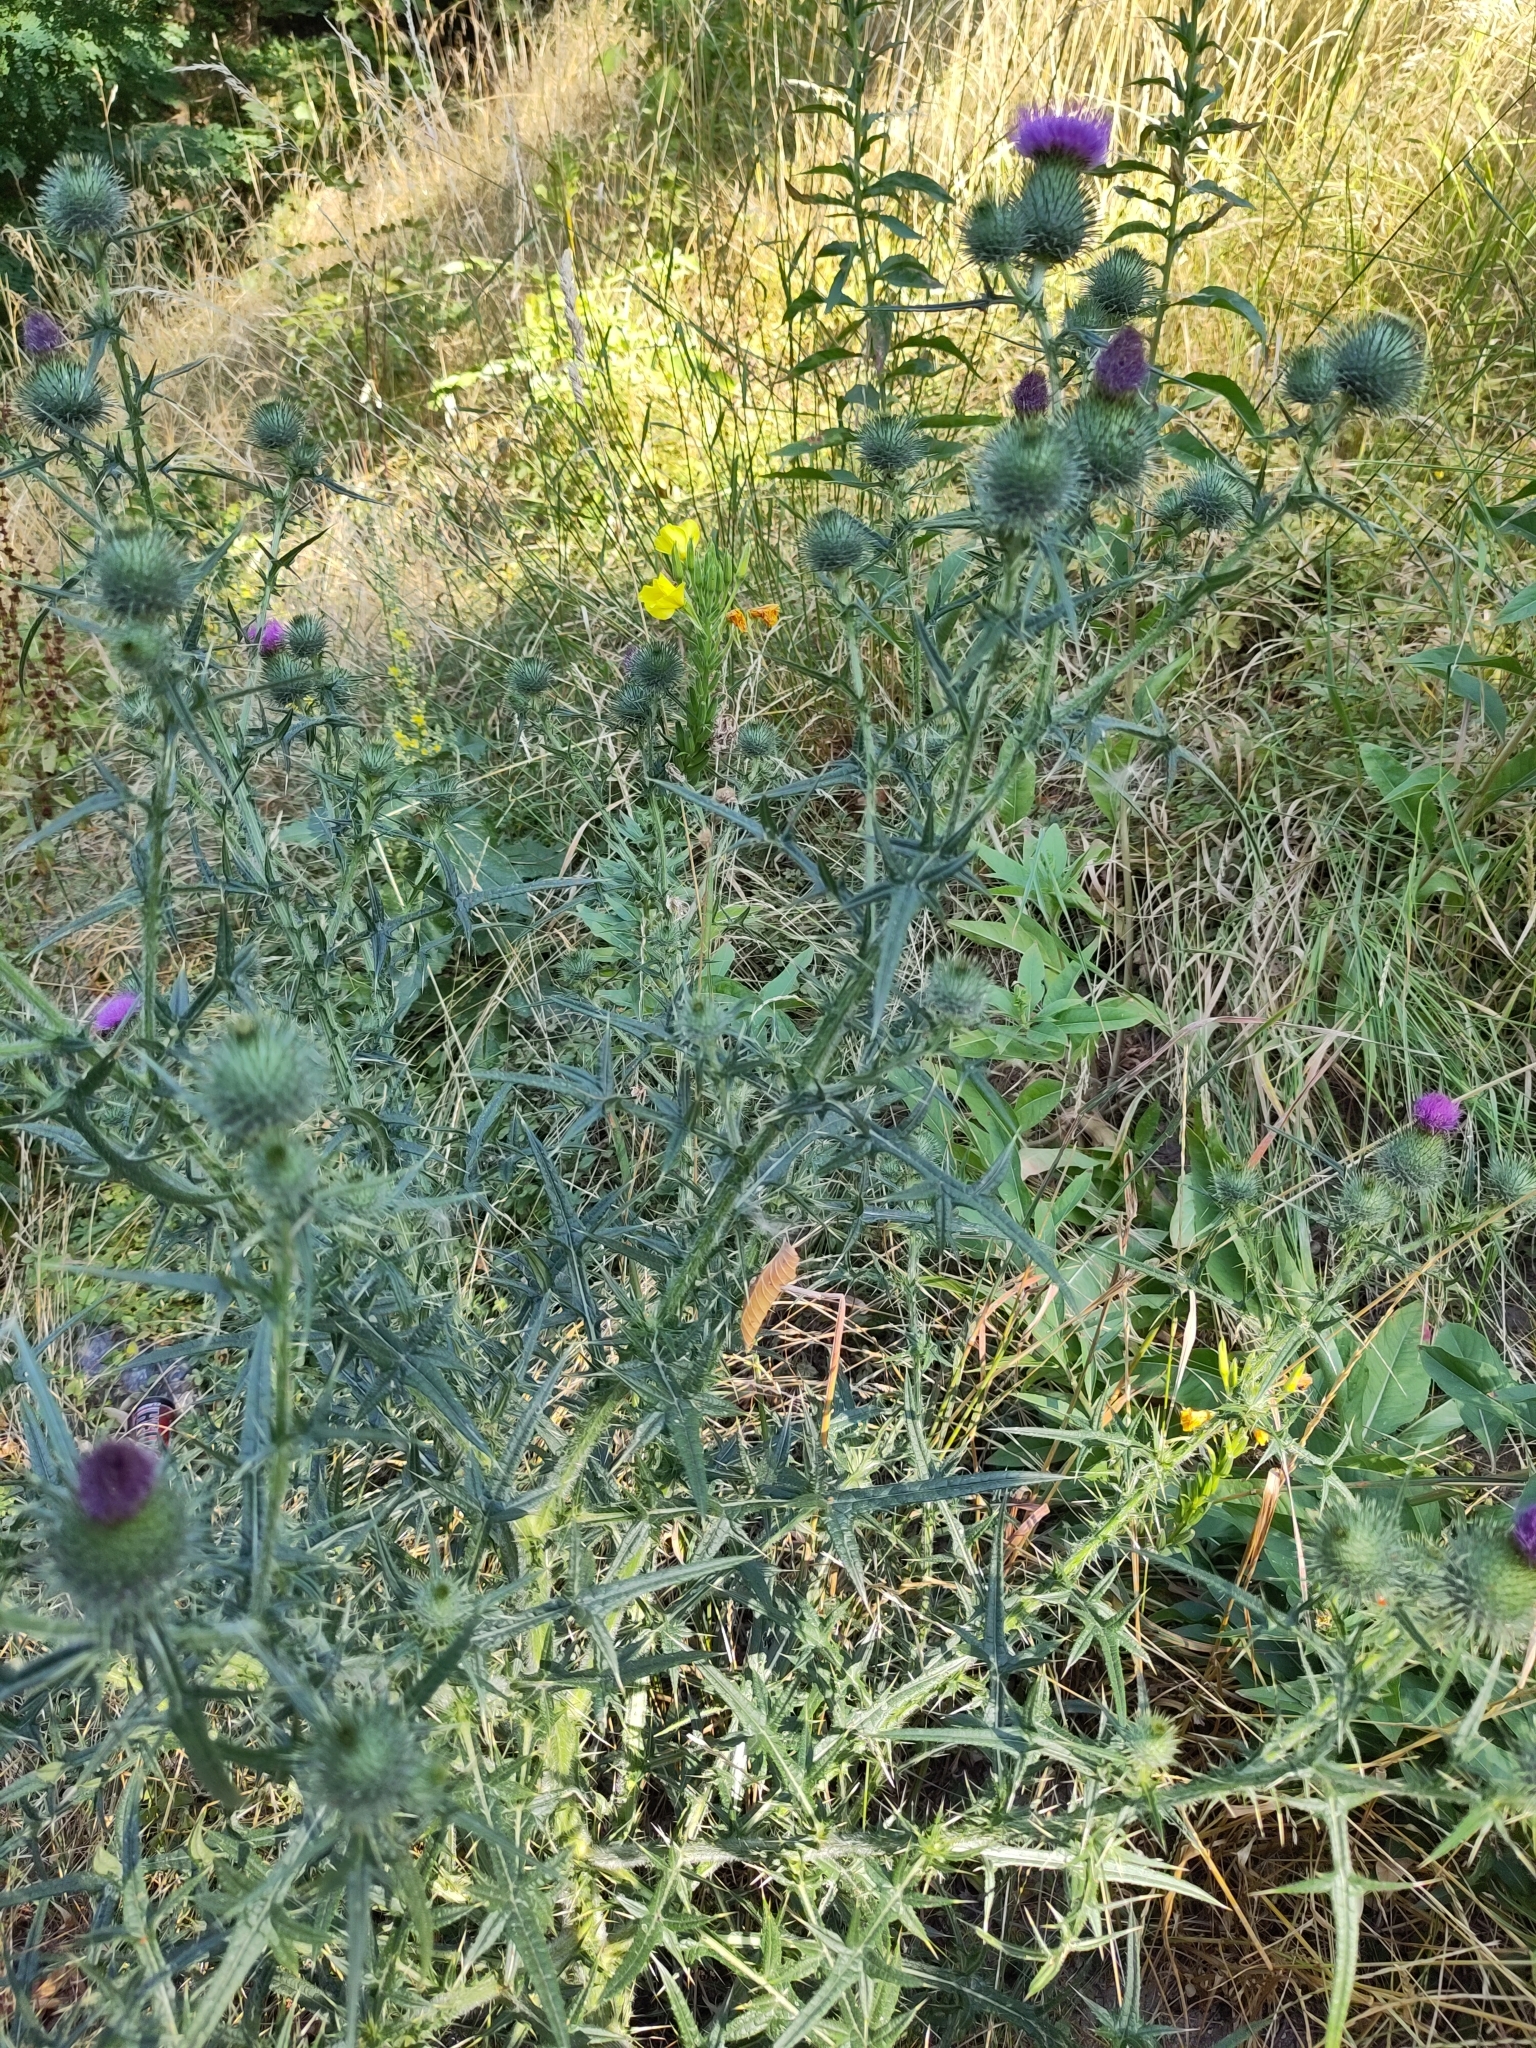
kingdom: Plantae
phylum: Tracheophyta
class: Magnoliopsida
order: Asterales
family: Asteraceae
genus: Cirsium
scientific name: Cirsium vulgare
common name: Bull thistle
